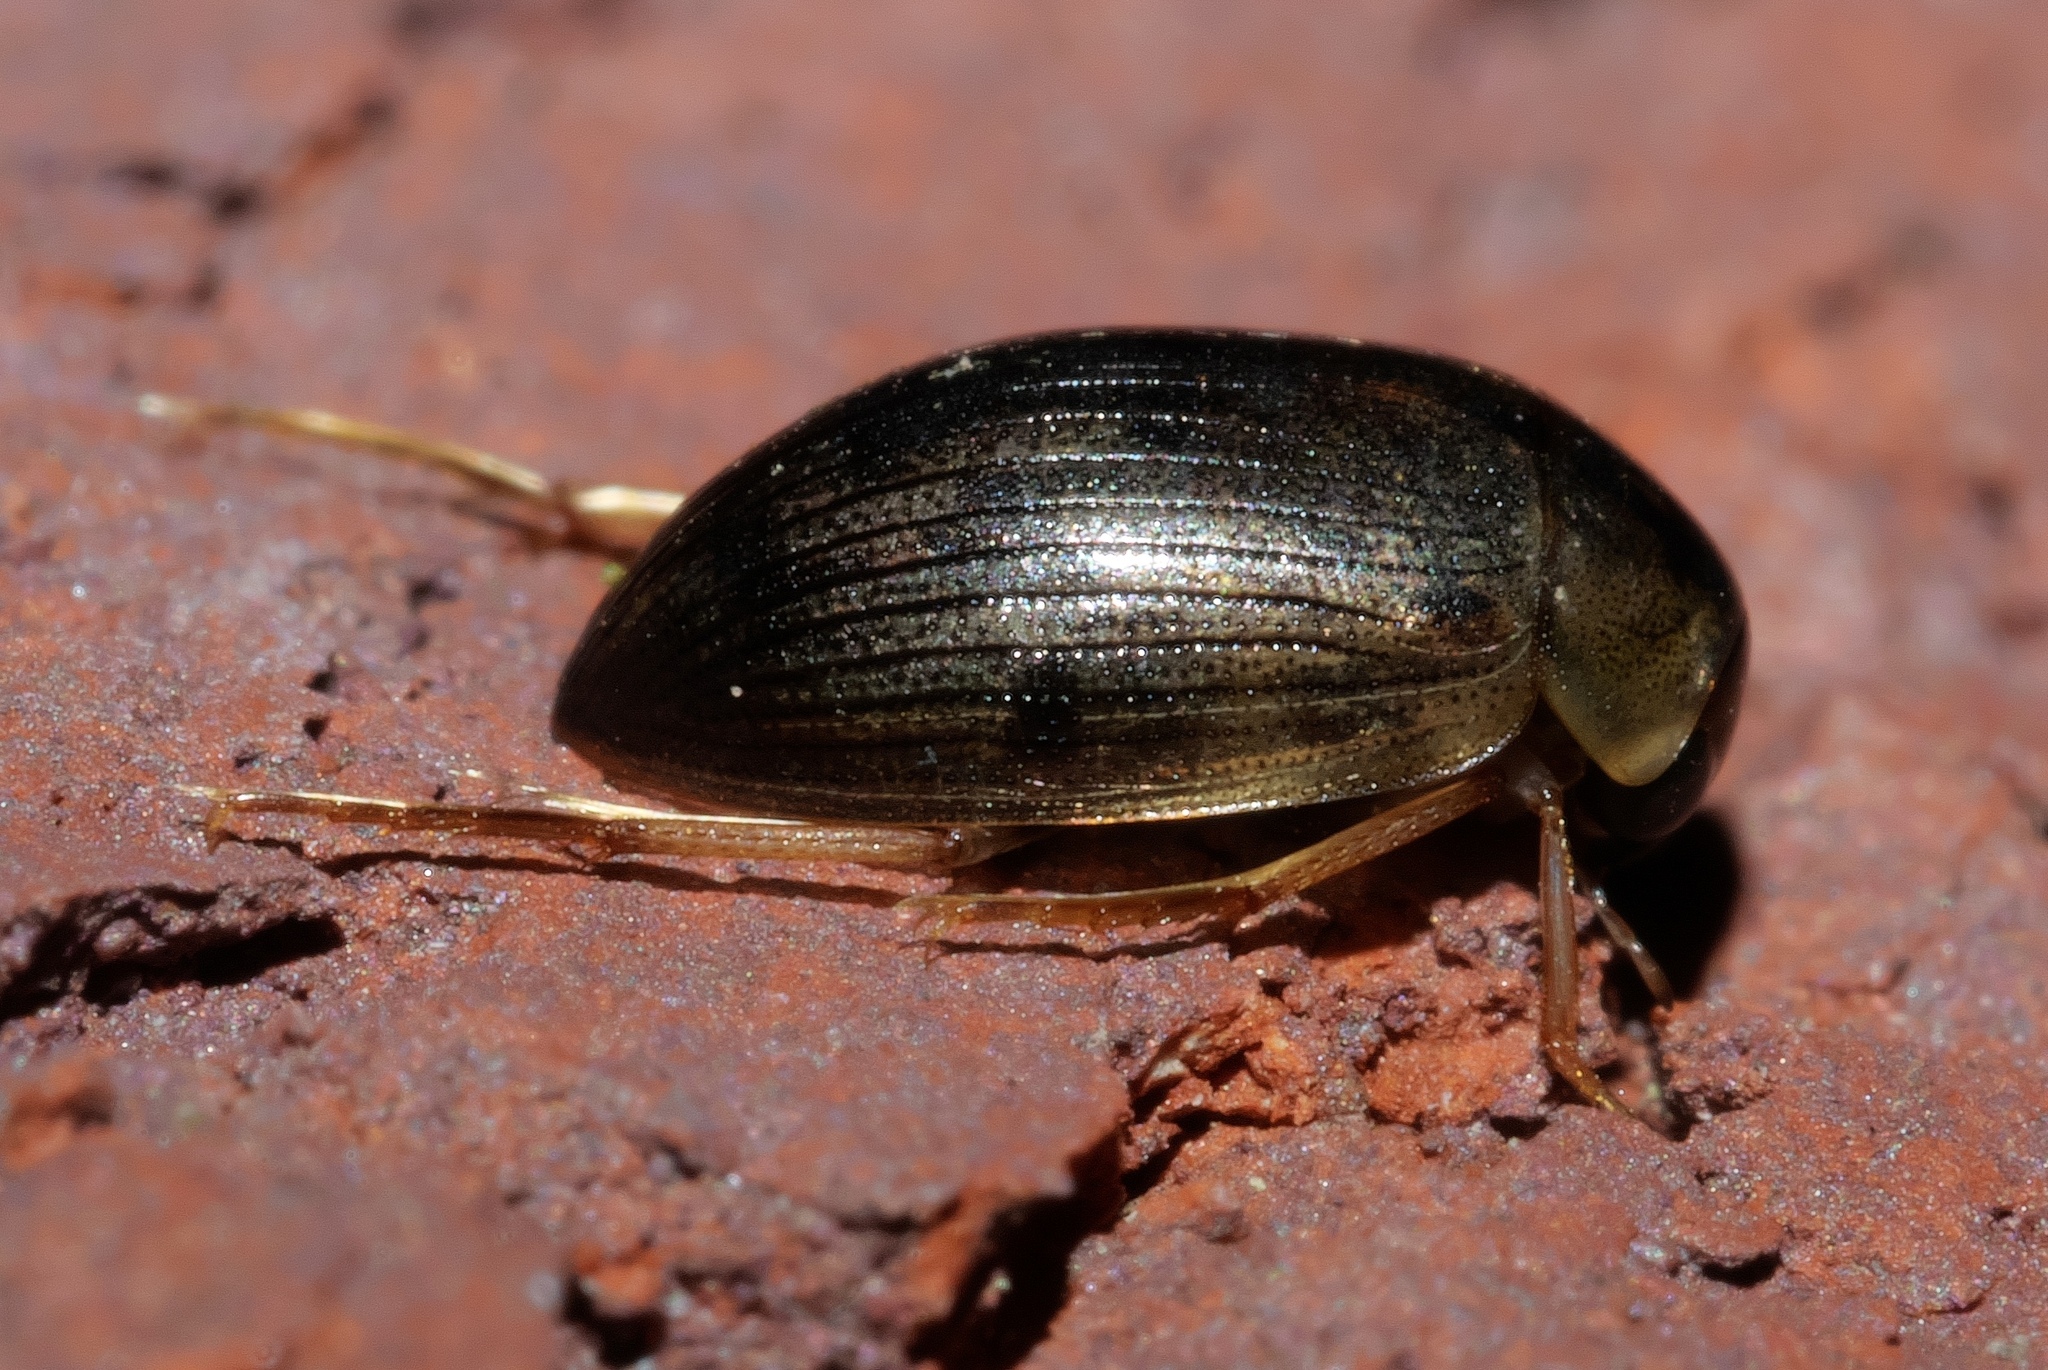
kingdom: Animalia
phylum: Arthropoda
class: Insecta
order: Coleoptera
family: Hydrophilidae
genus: Berosus
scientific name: Berosus
